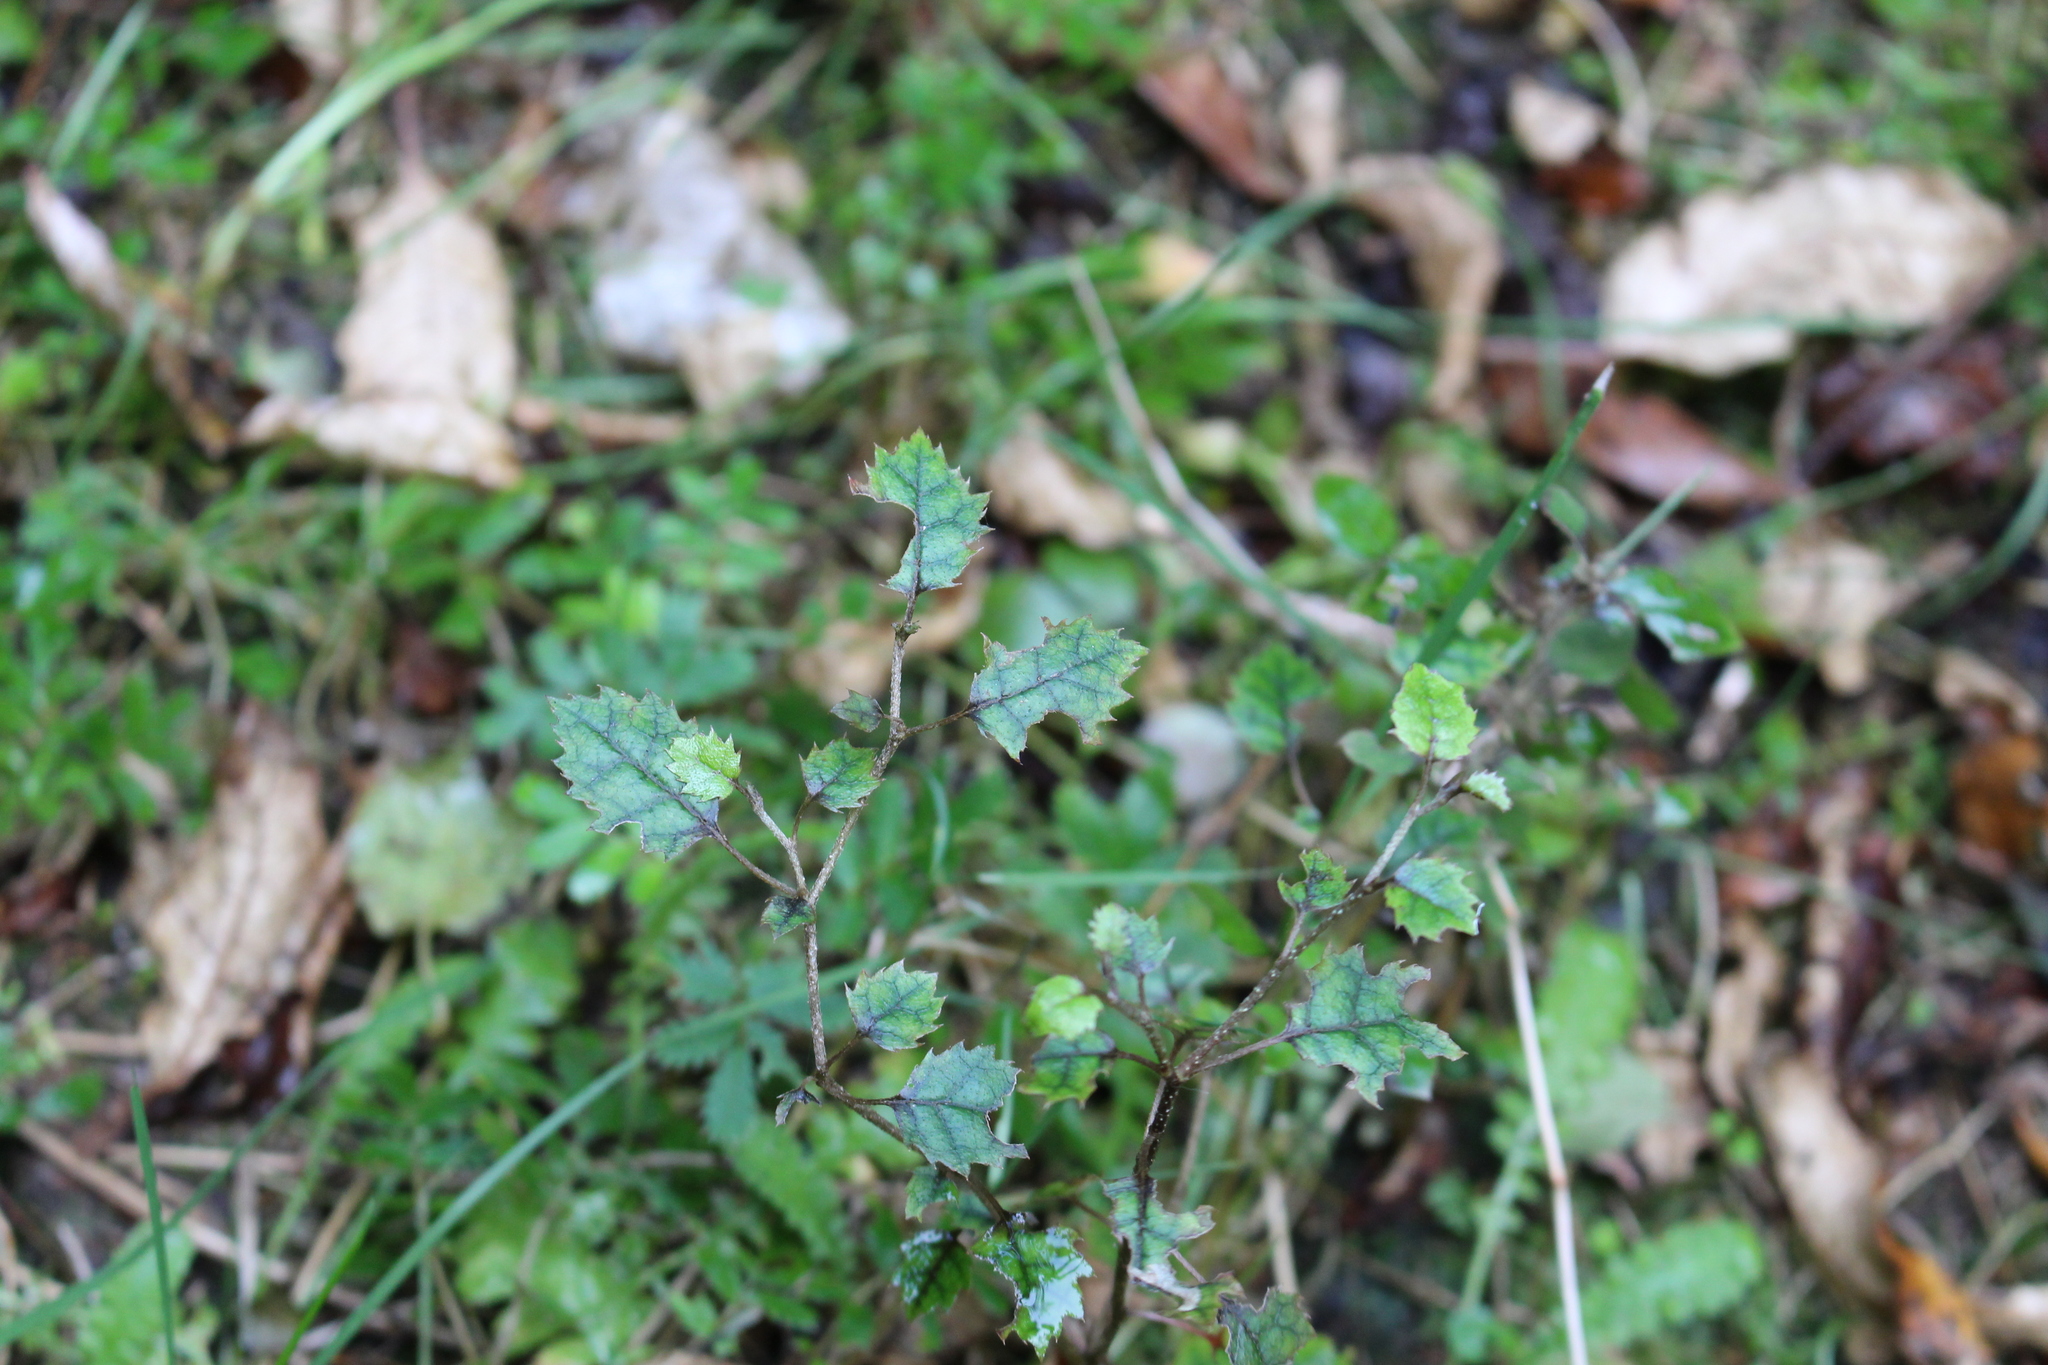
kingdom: Plantae
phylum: Tracheophyta
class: Magnoliopsida
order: Asterales
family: Rousseaceae
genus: Carpodetus
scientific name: Carpodetus serratus
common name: White mapau
